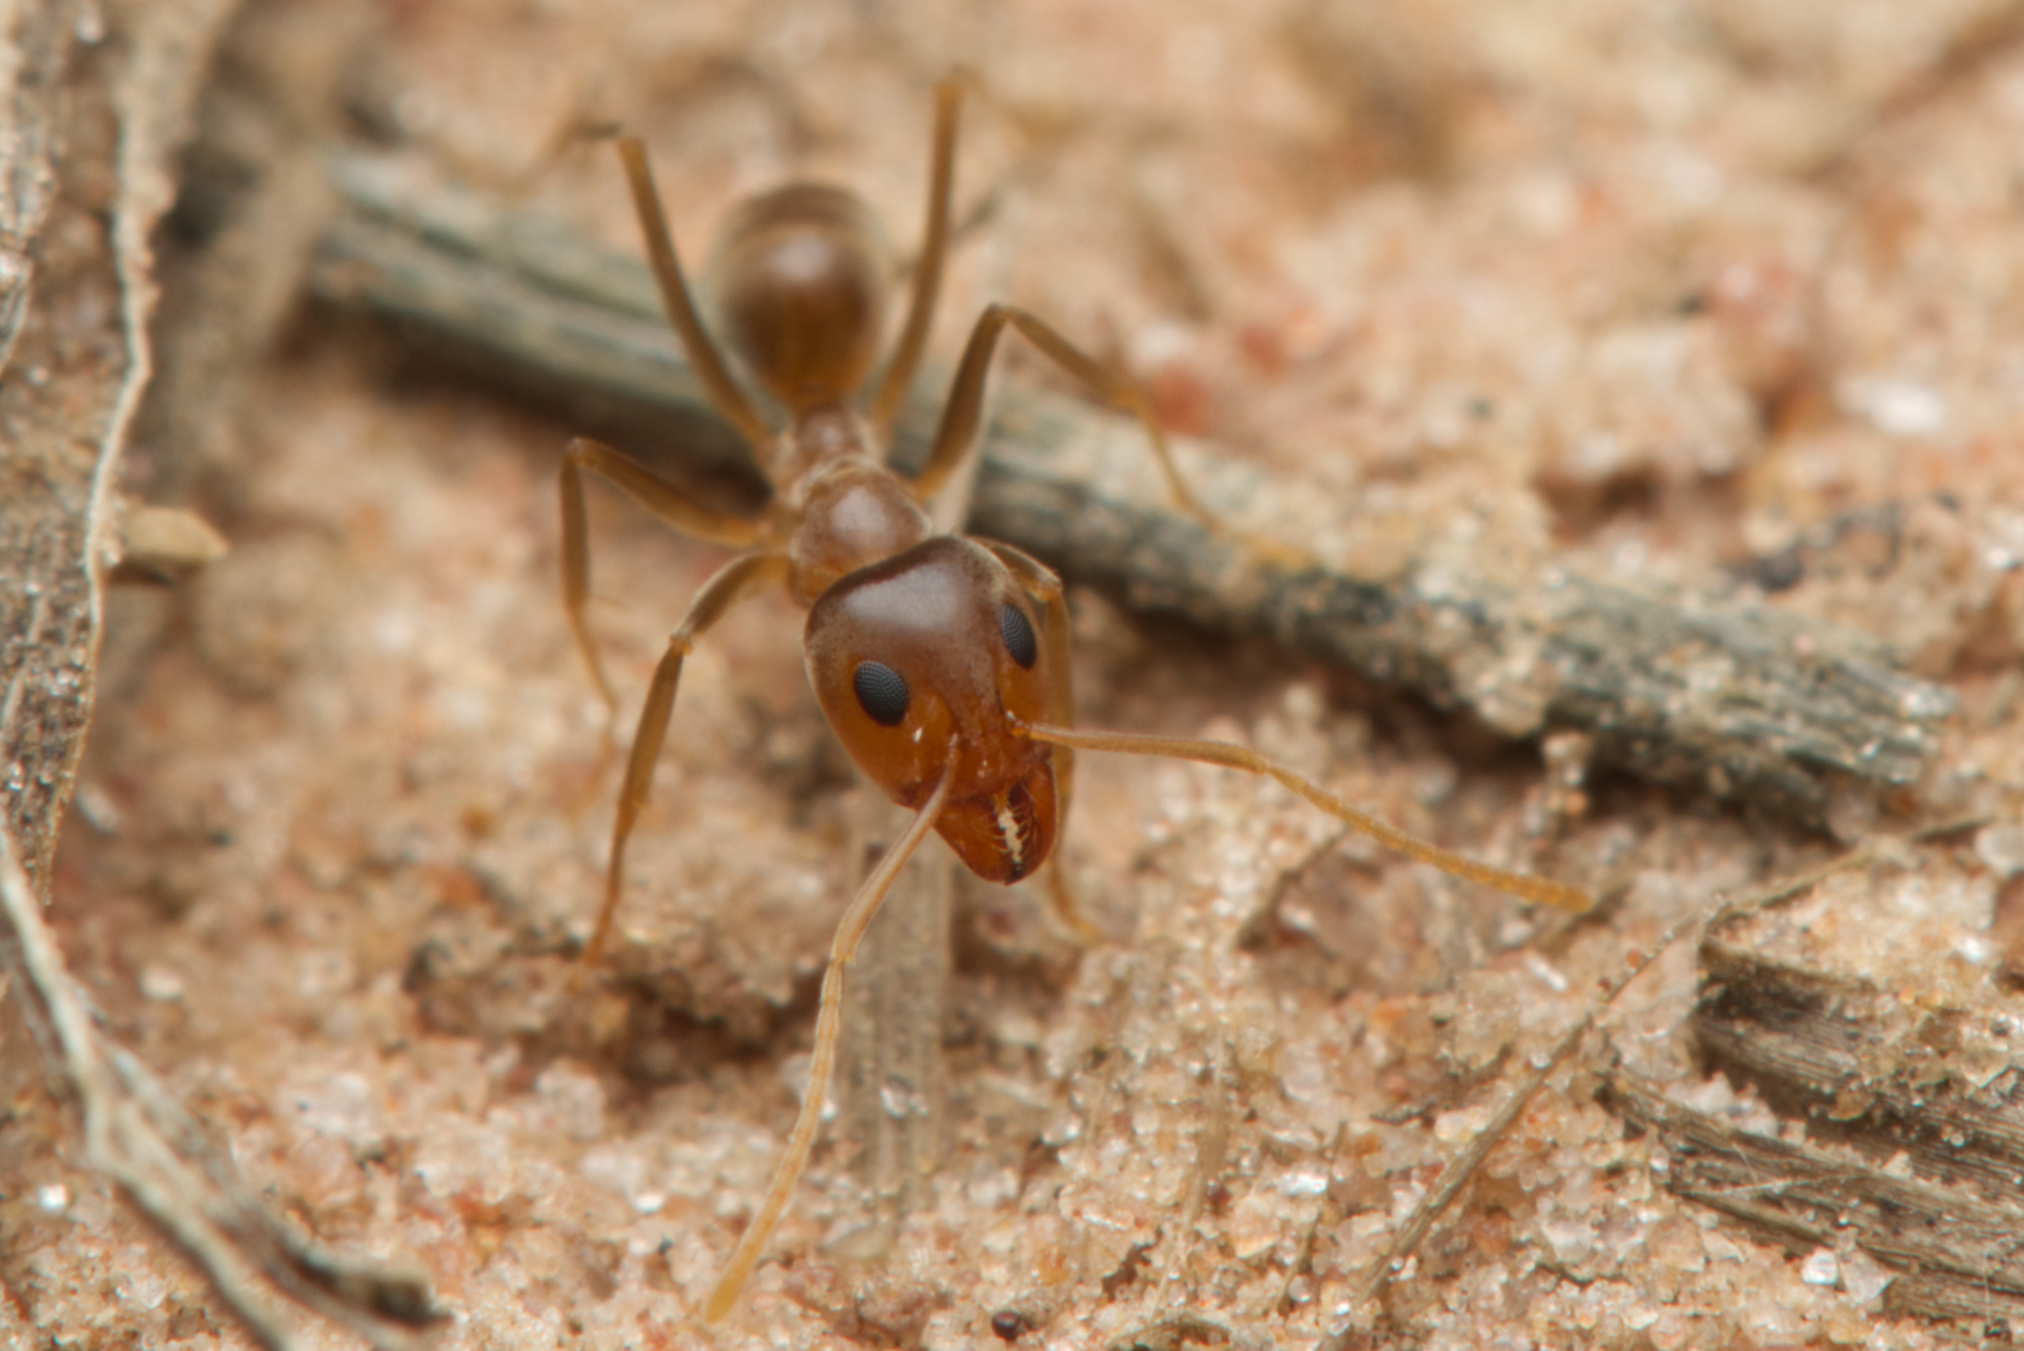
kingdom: Animalia
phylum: Arthropoda
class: Insecta
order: Hymenoptera
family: Formicidae
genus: Iridomyrmex
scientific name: Iridomyrmex pallidus
